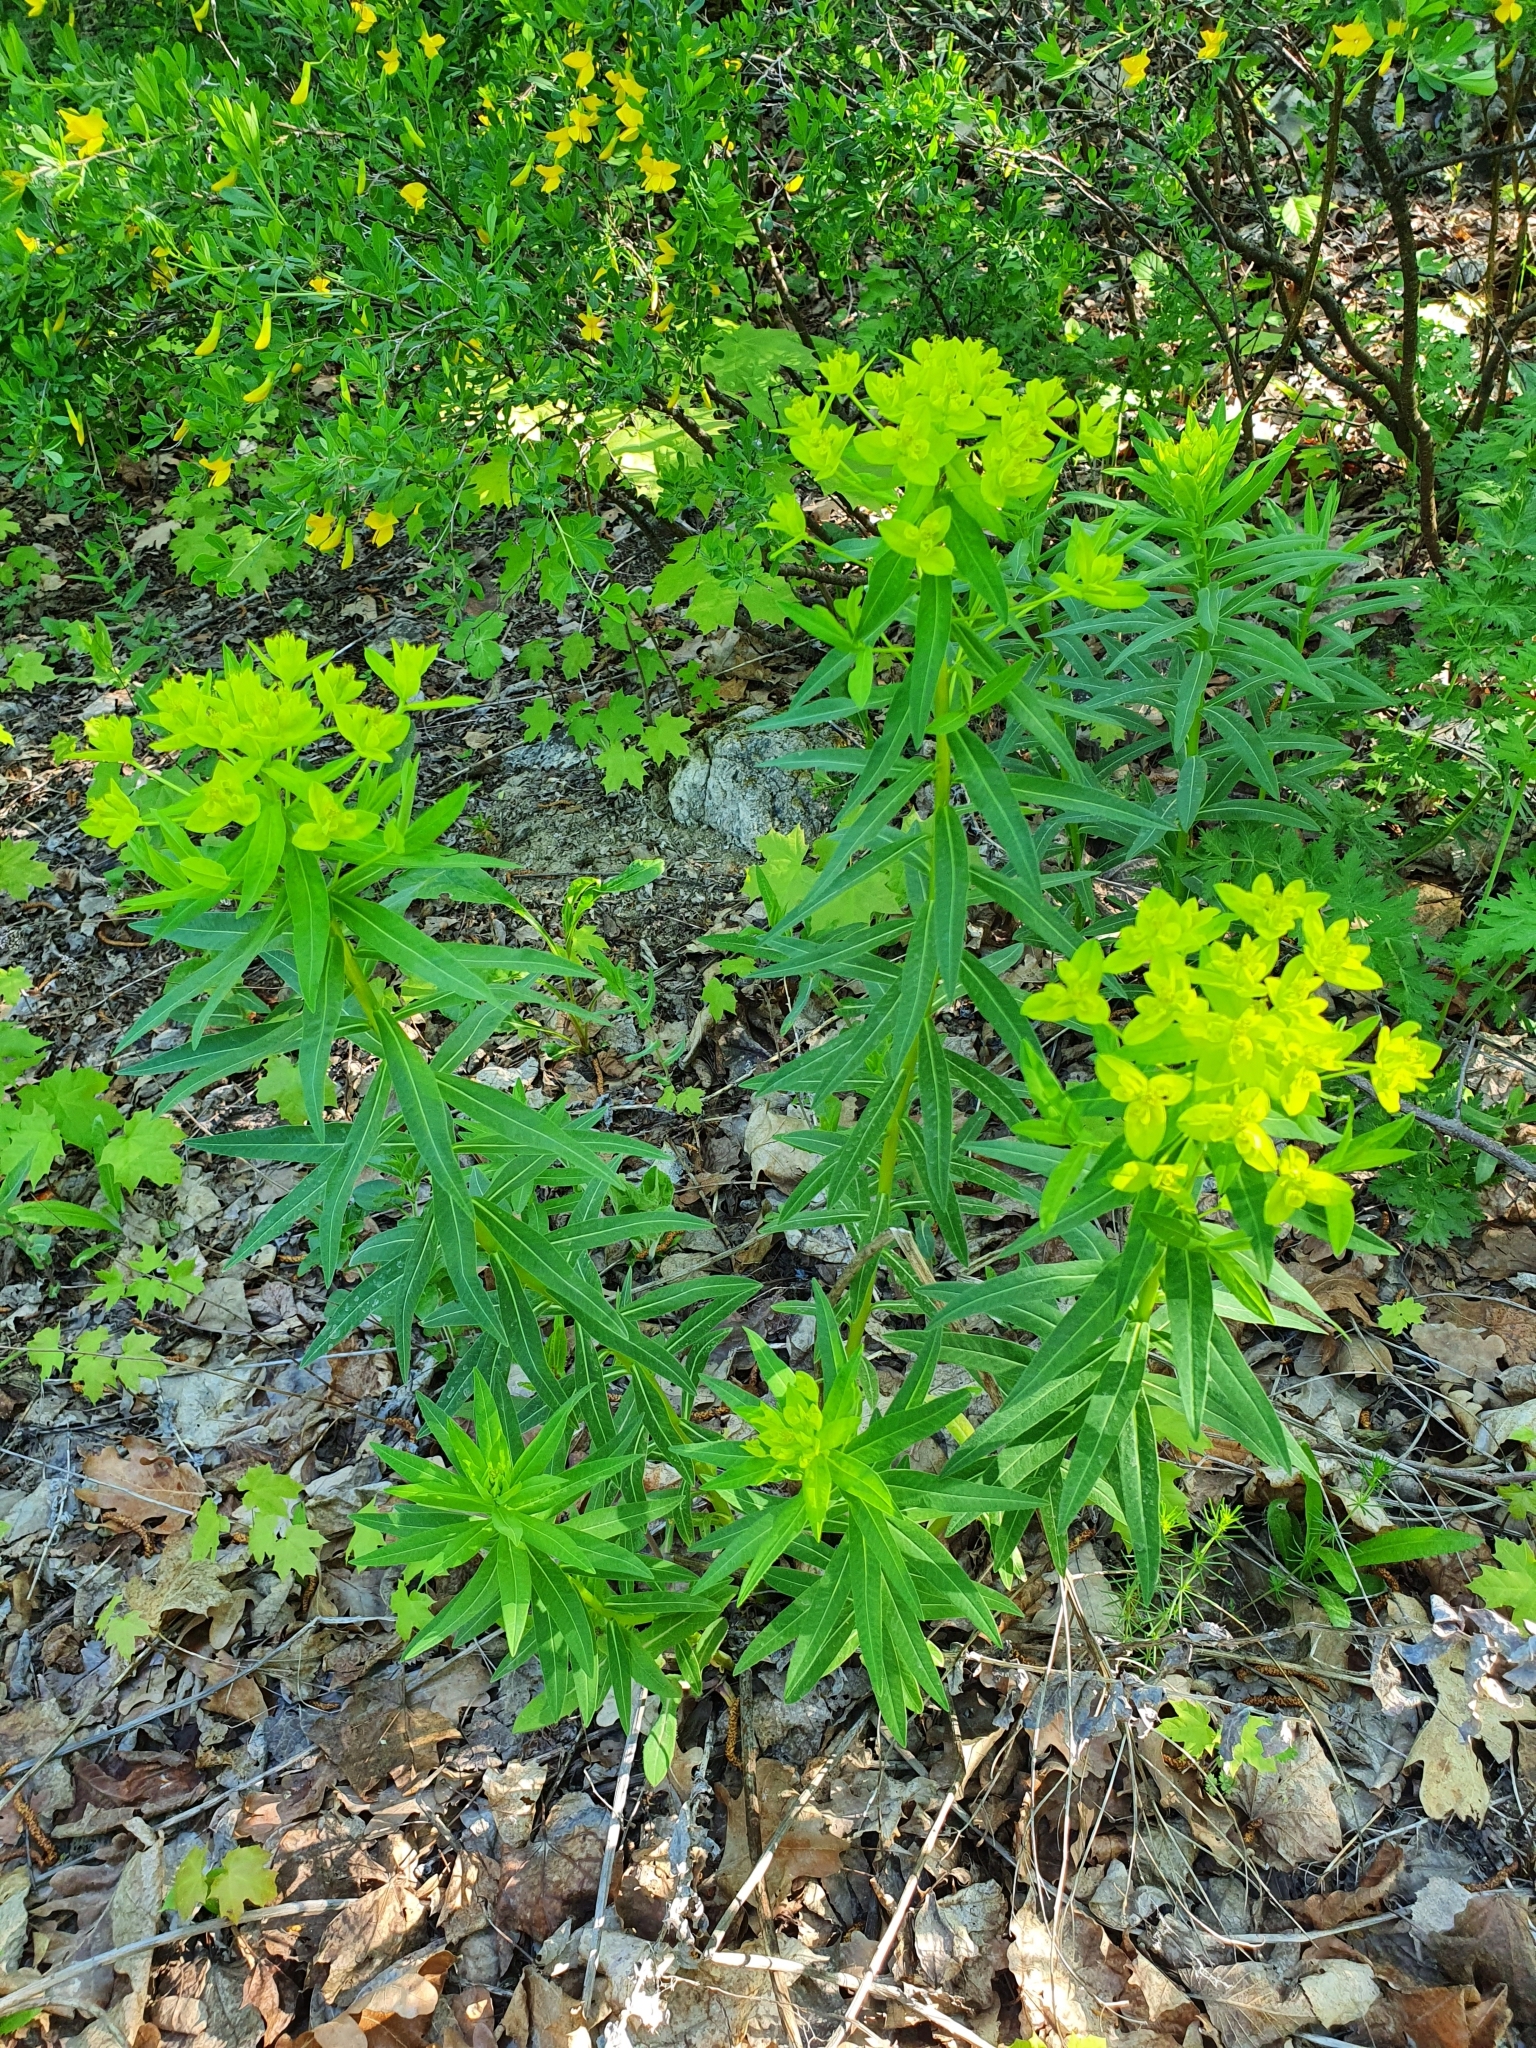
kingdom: Plantae
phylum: Tracheophyta
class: Magnoliopsida
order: Malpighiales
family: Euphorbiaceae
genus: Euphorbia
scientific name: Euphorbia semivillosa
